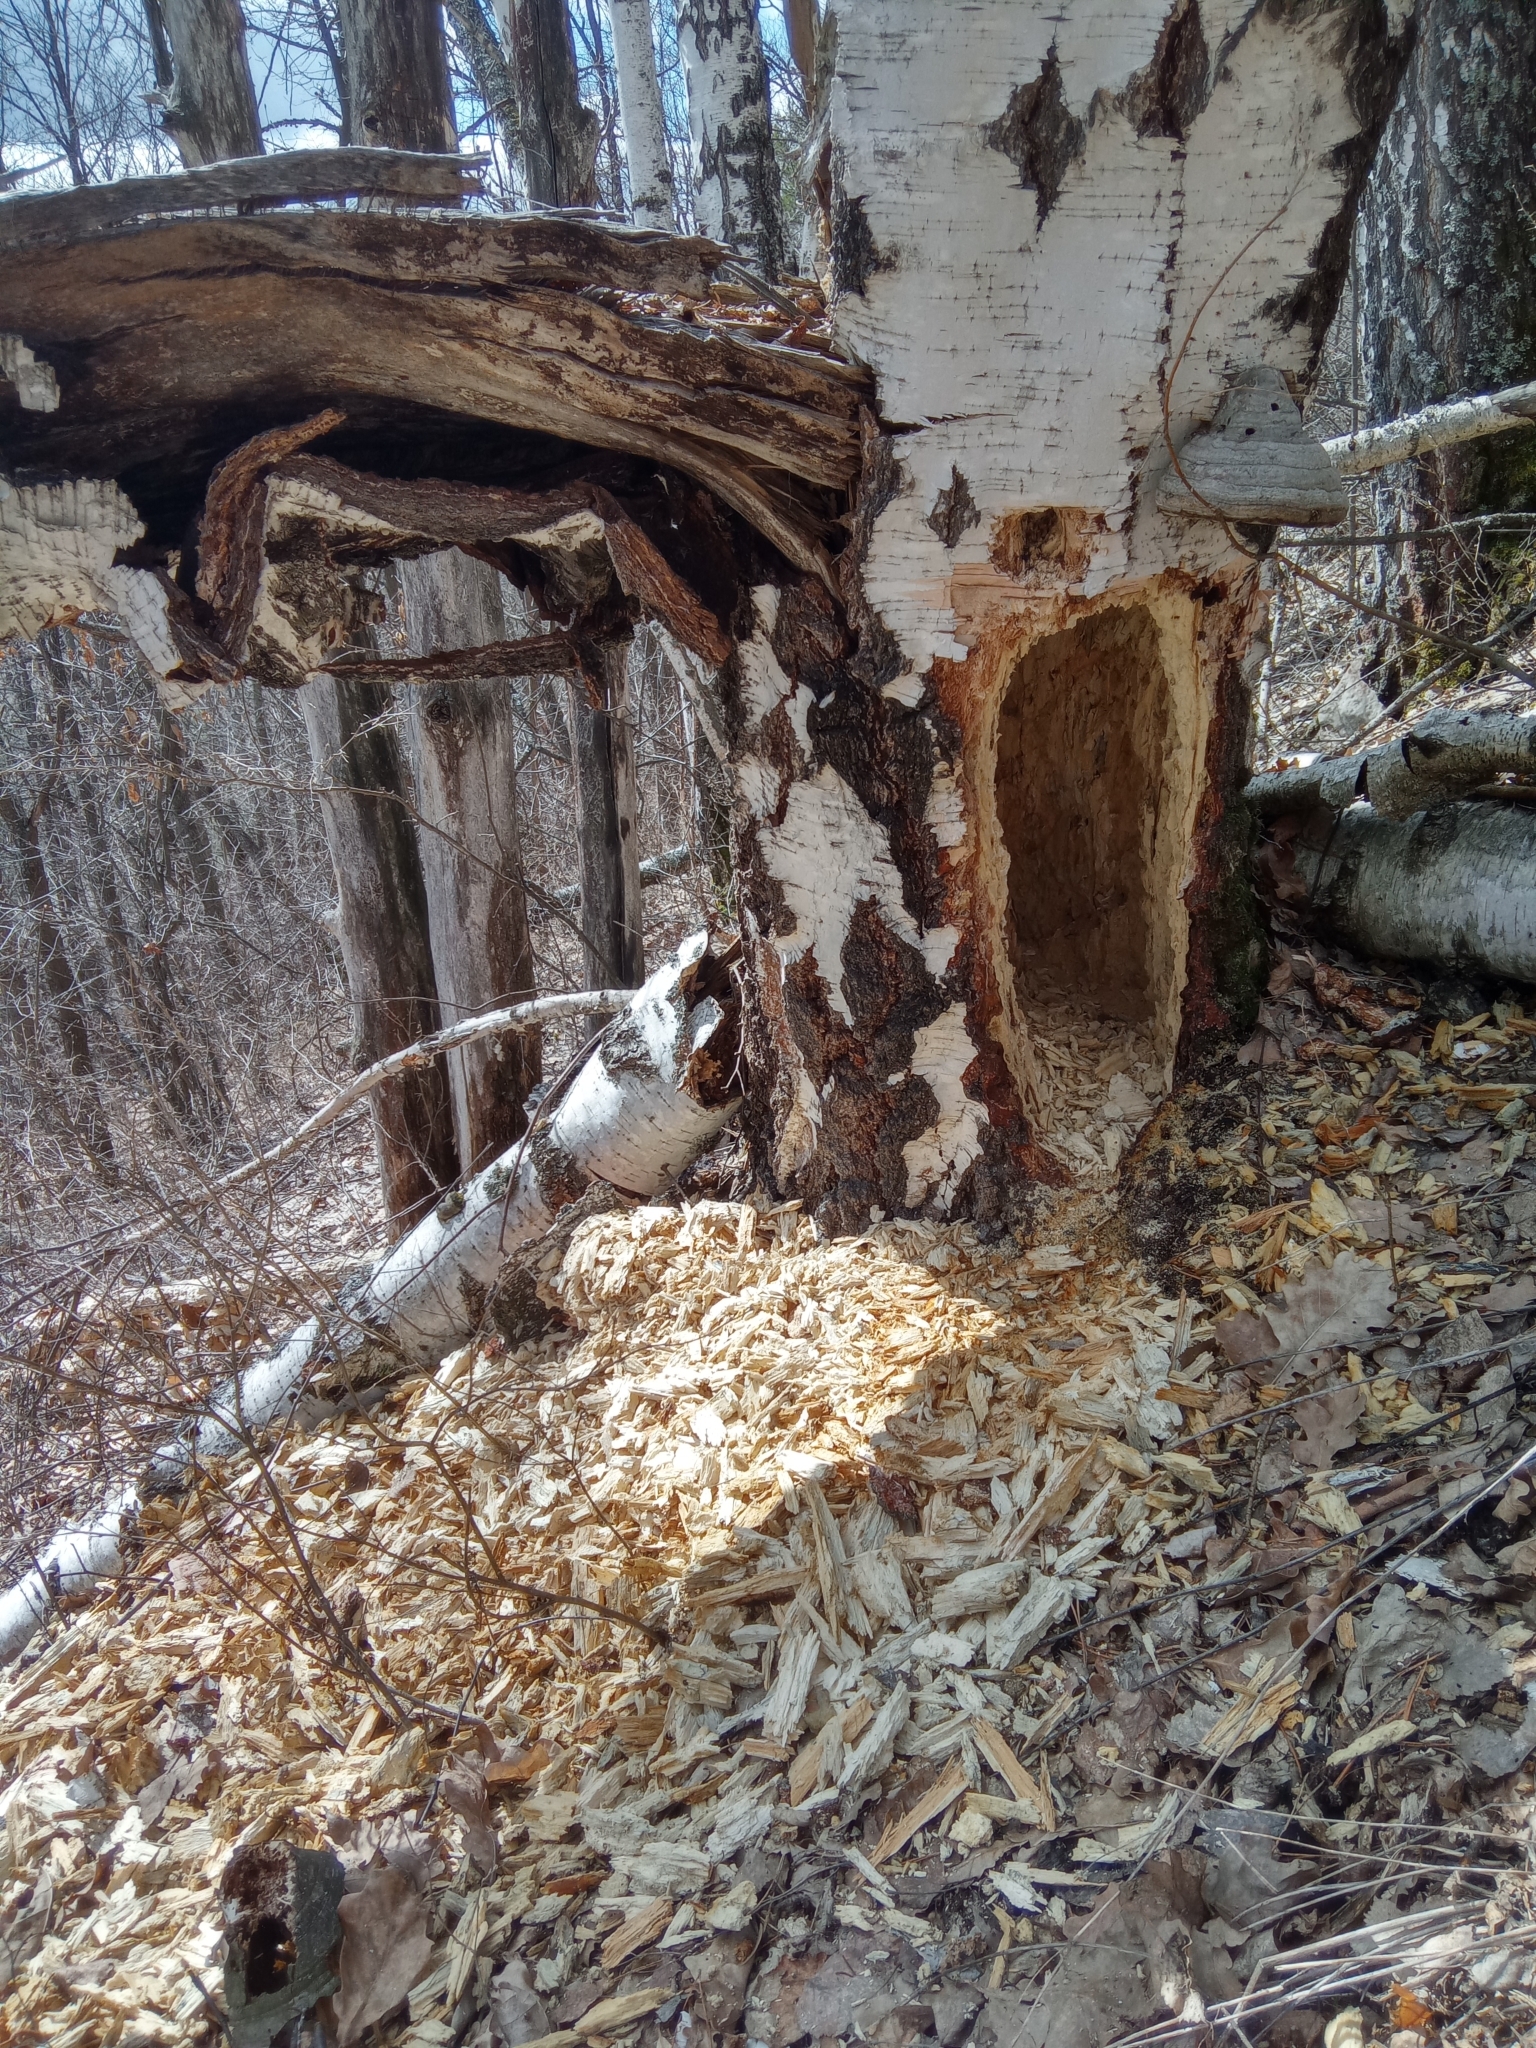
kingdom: Animalia
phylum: Chordata
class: Aves
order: Piciformes
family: Picidae
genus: Dryocopus
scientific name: Dryocopus martius
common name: Black woodpecker
